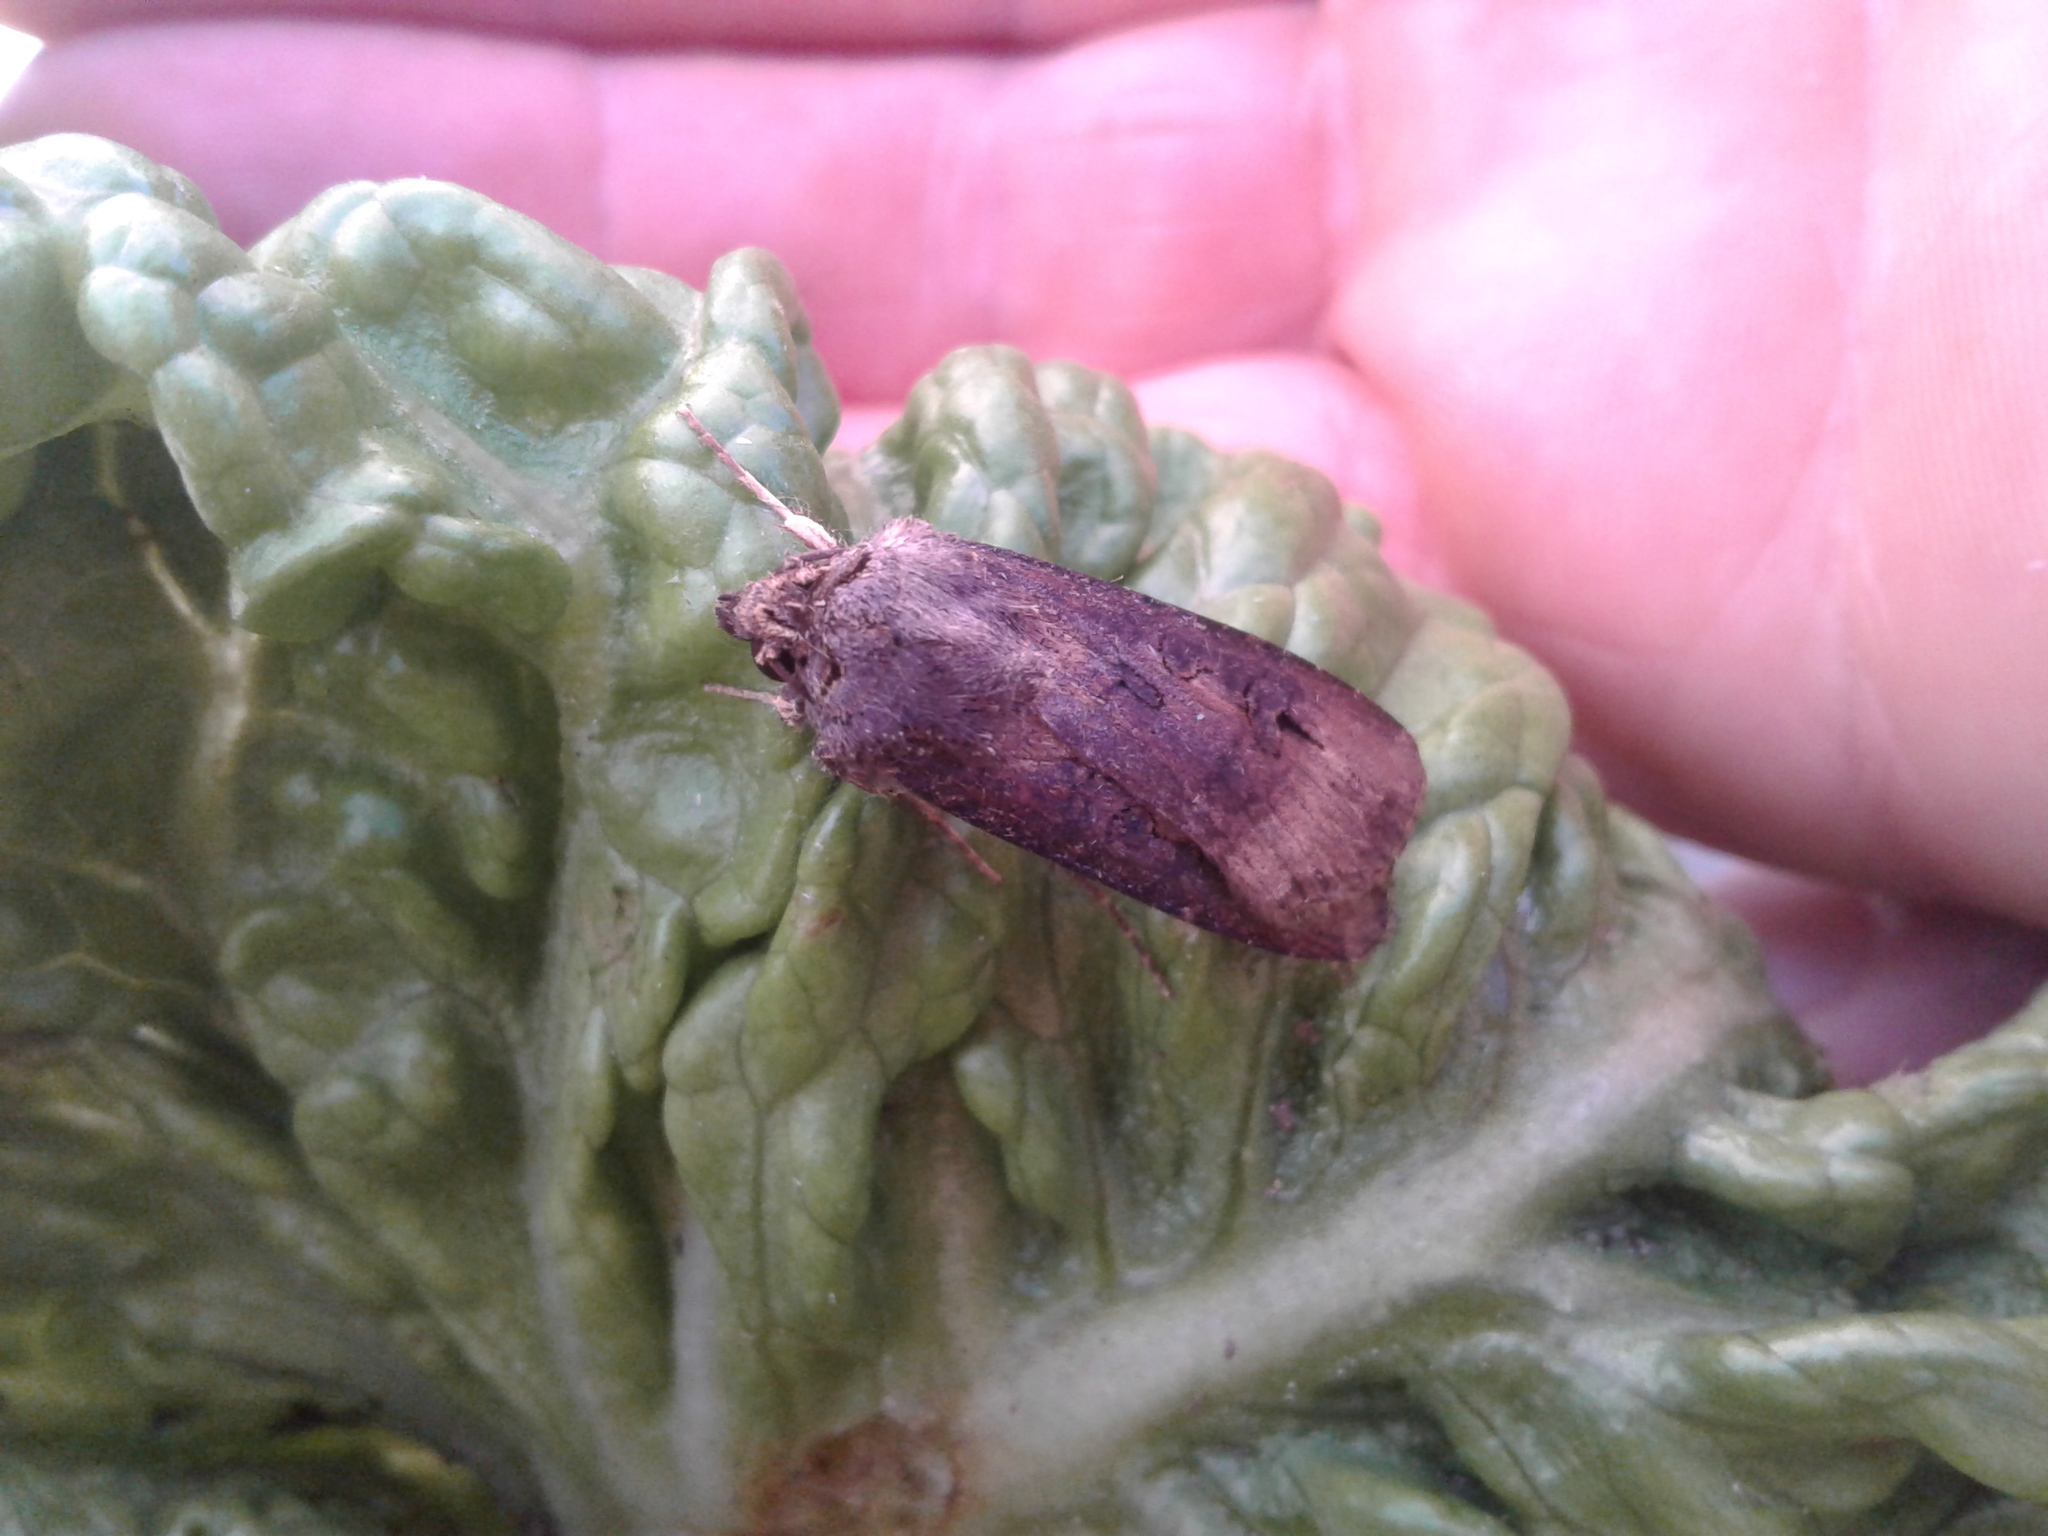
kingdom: Animalia
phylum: Arthropoda
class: Insecta
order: Lepidoptera
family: Noctuidae
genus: Agrotis
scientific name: Agrotis ipsilon
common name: Dark sword-grass
